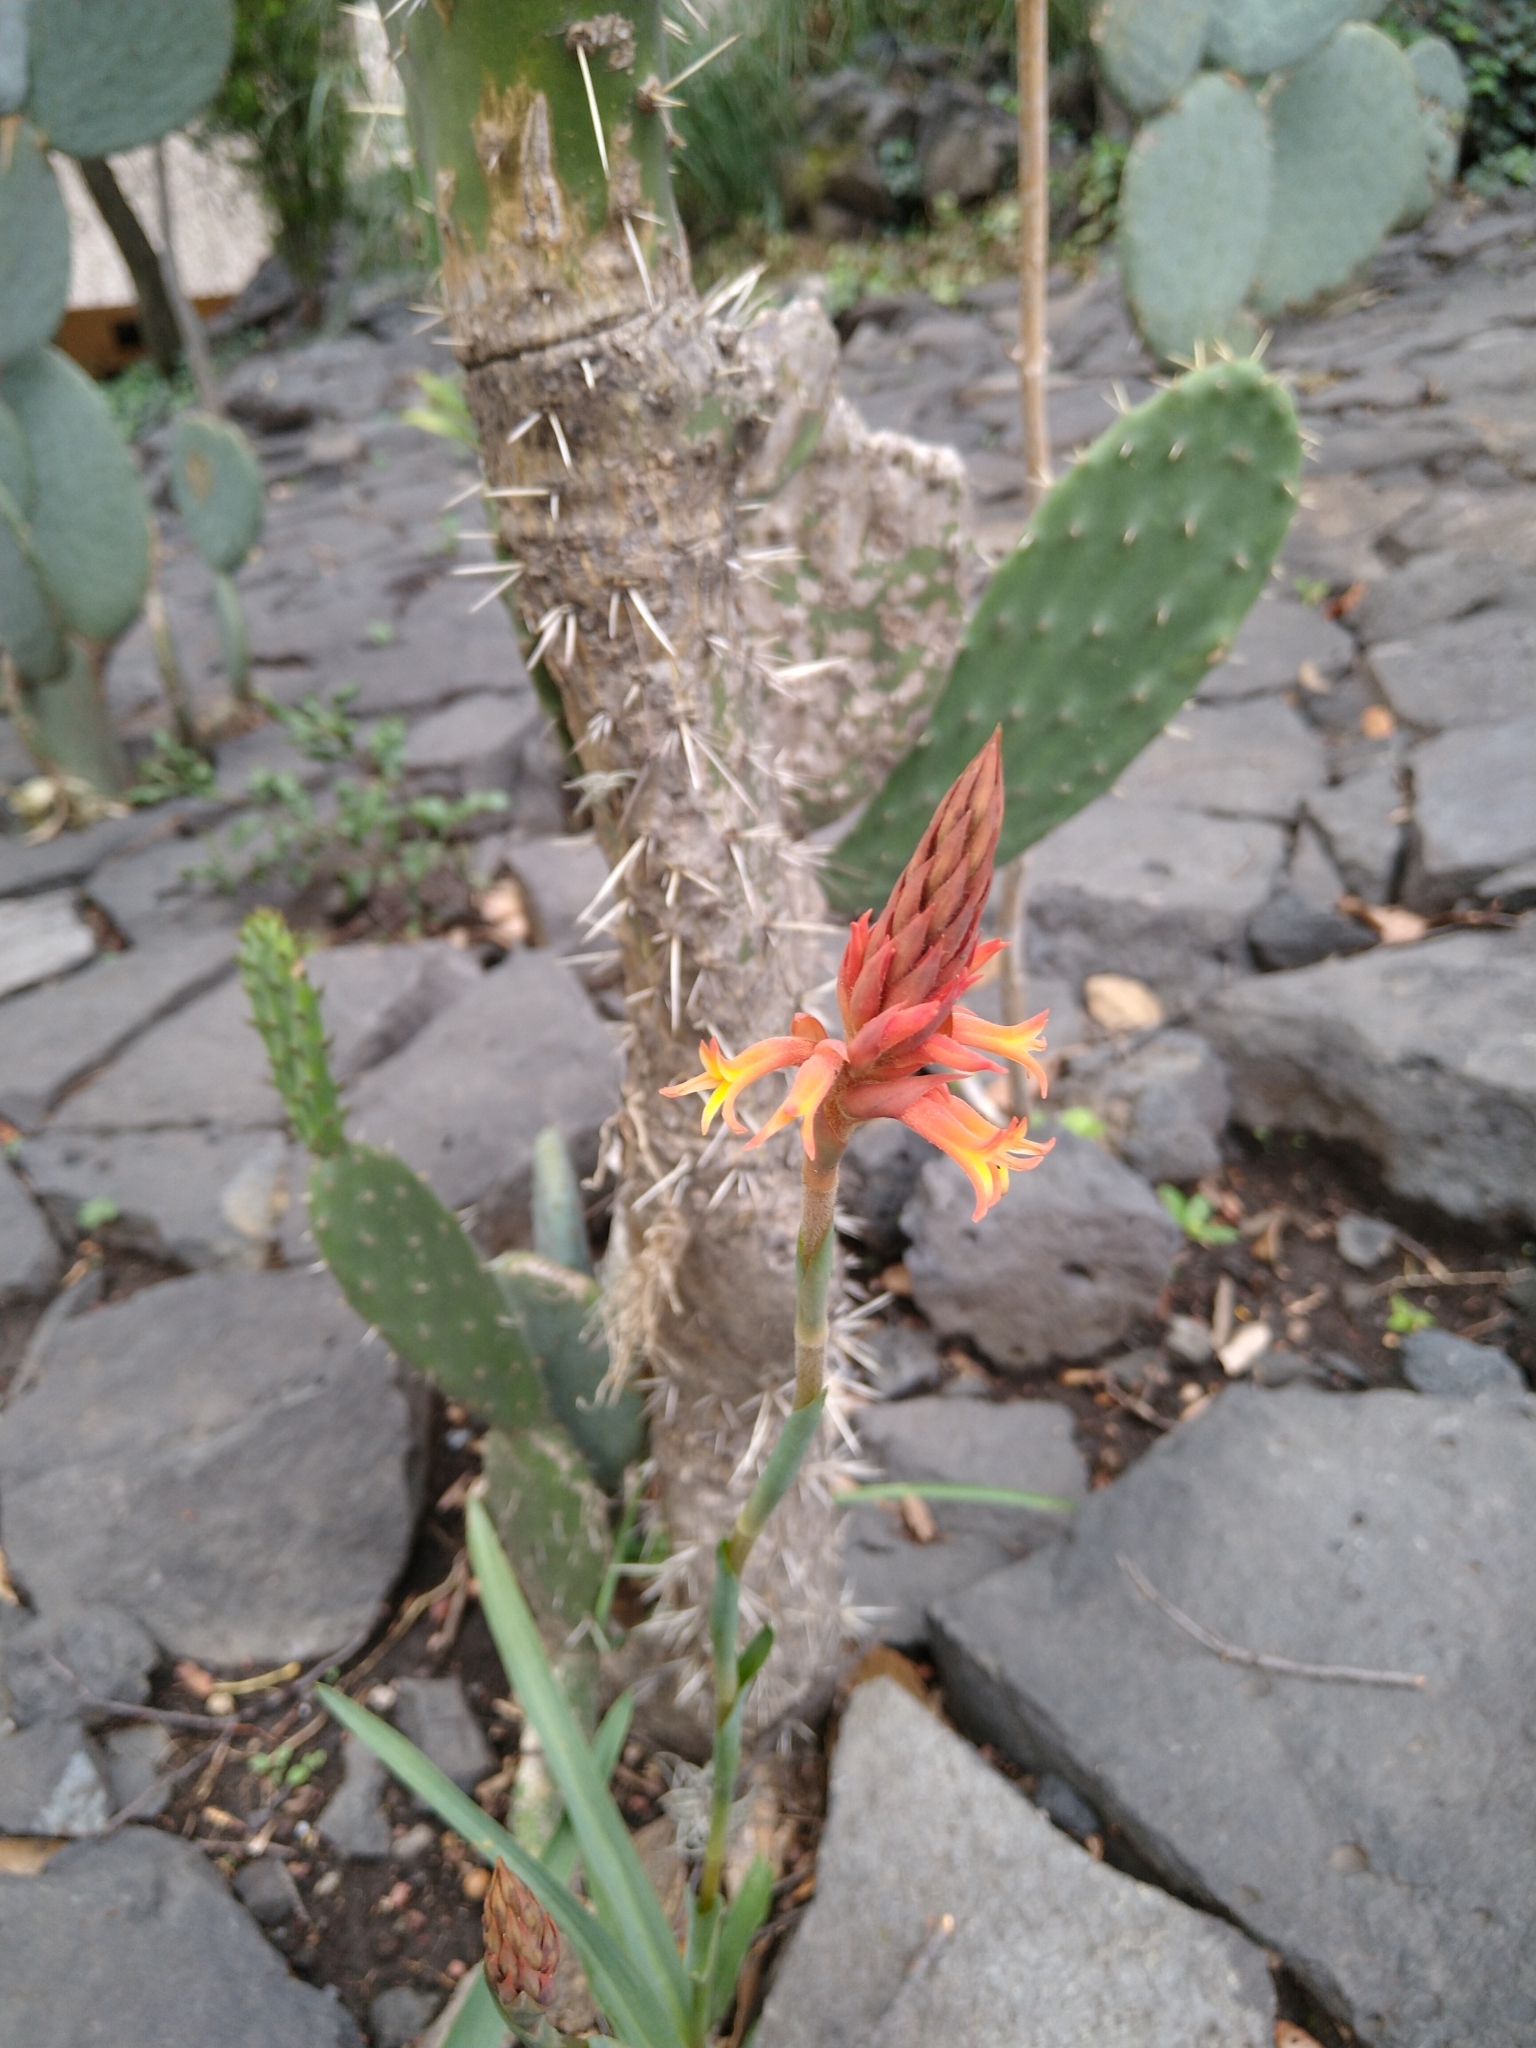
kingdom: Plantae
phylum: Tracheophyta
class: Liliopsida
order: Asparagales
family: Orchidaceae
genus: Dichromanthus
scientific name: Dichromanthus cinnabarinus
